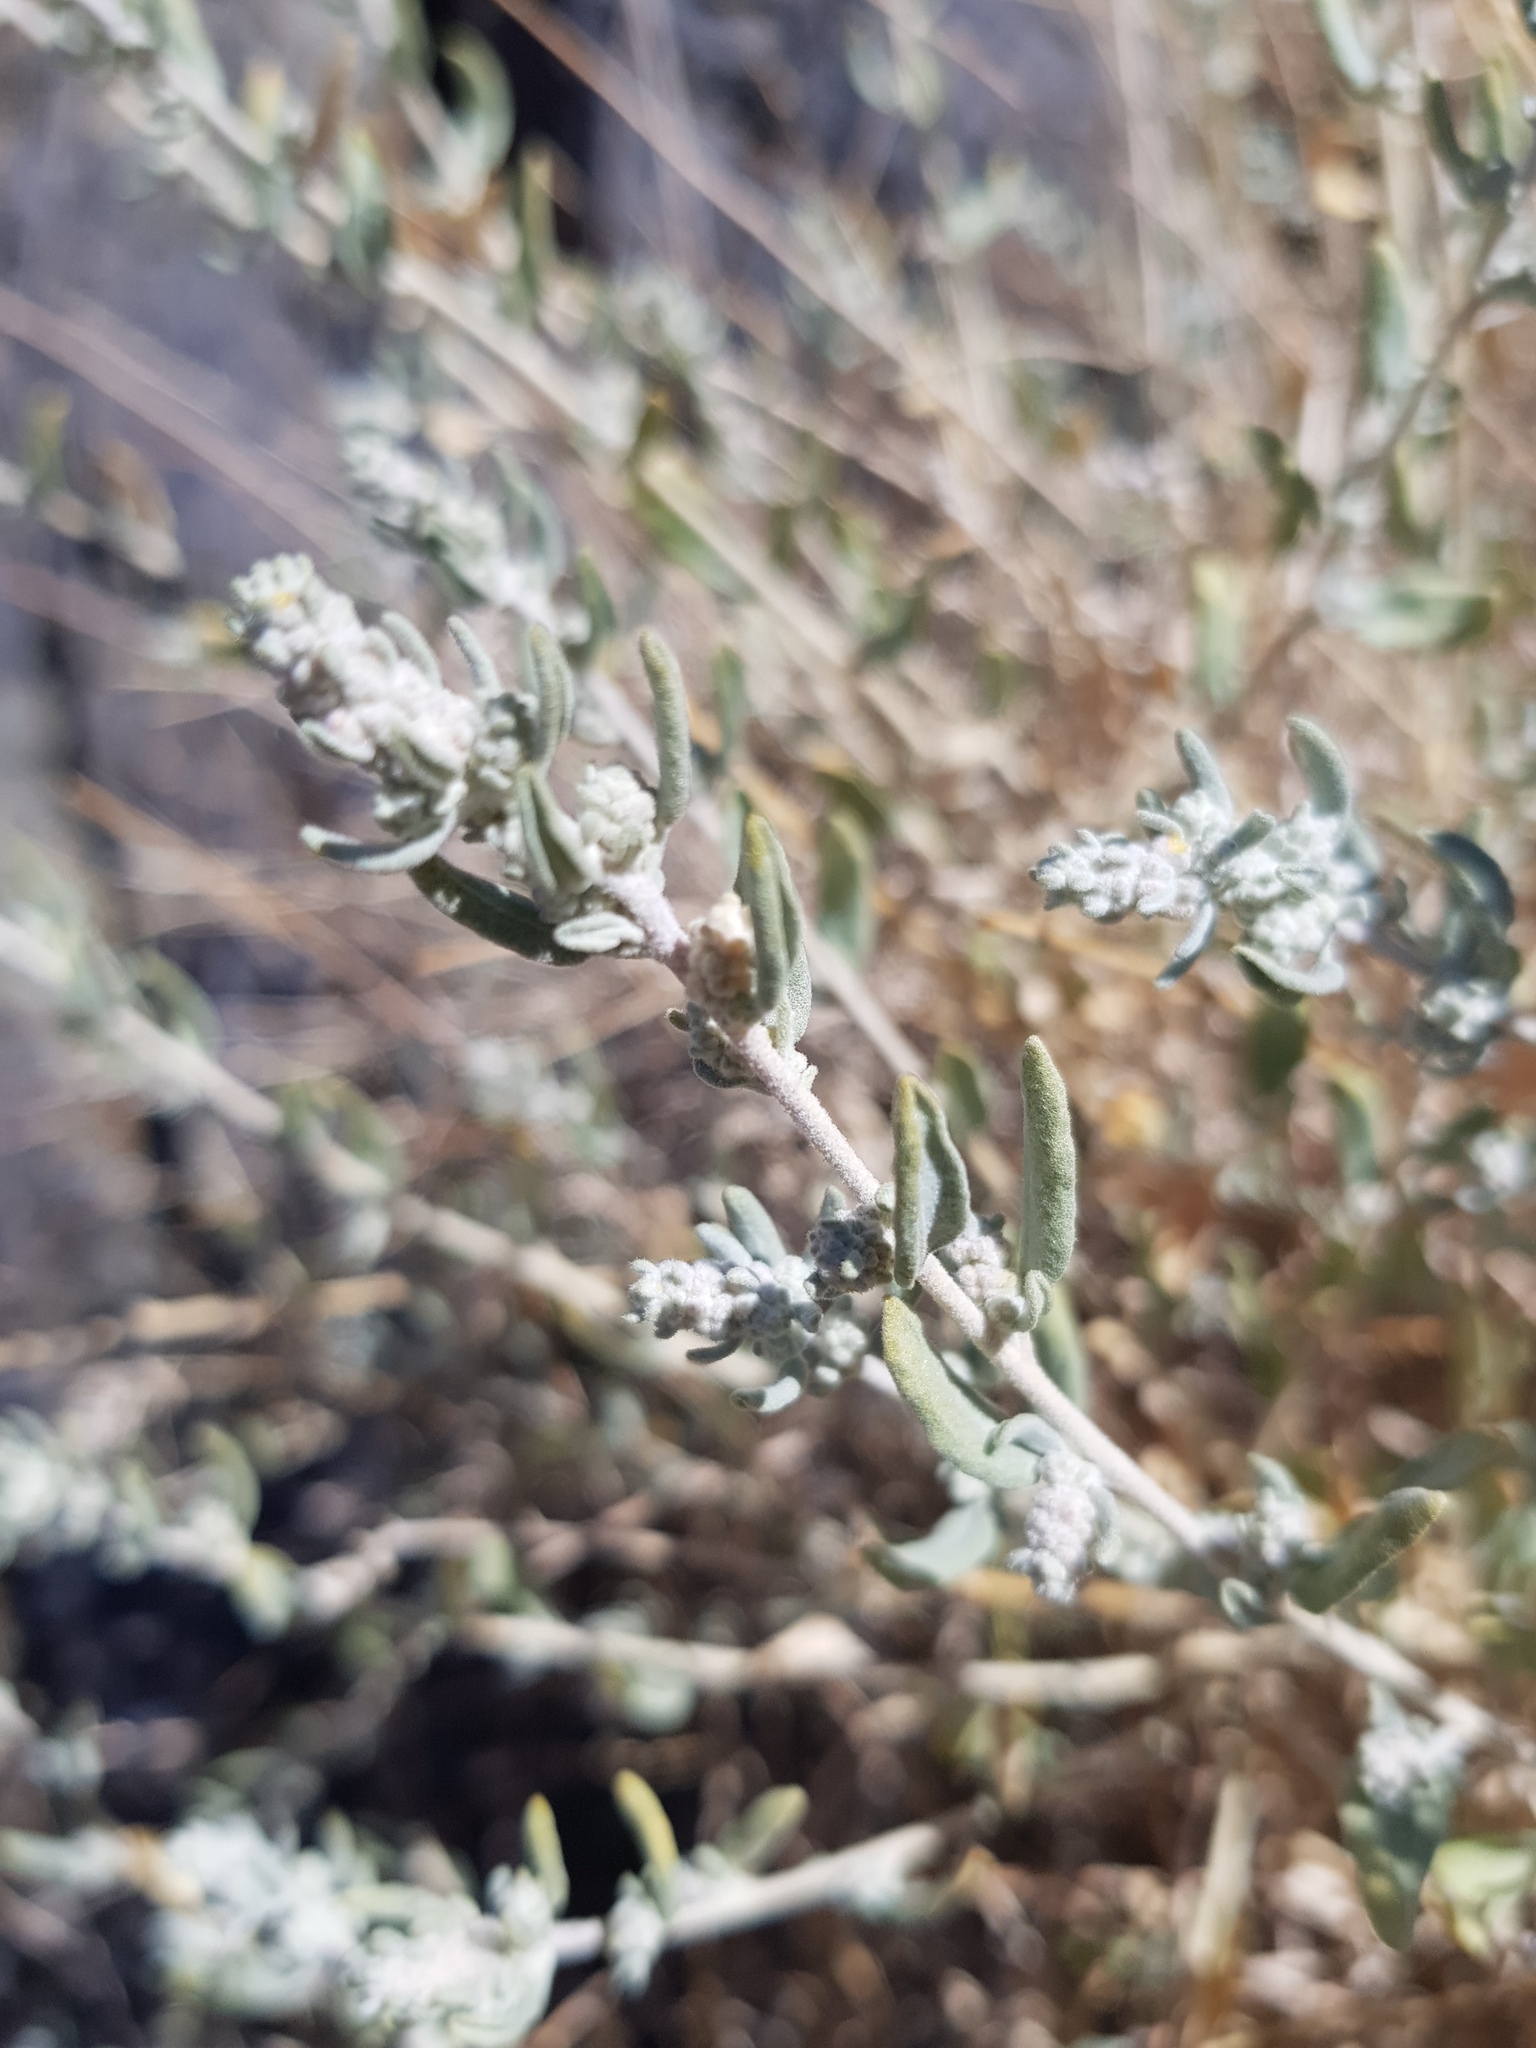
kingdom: Plantae
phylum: Tracheophyta
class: Magnoliopsida
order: Caryophyllales
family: Amaranthaceae
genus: Krascheninnikovia
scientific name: Krascheninnikovia ceratoides
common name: Pamirian winterfat
